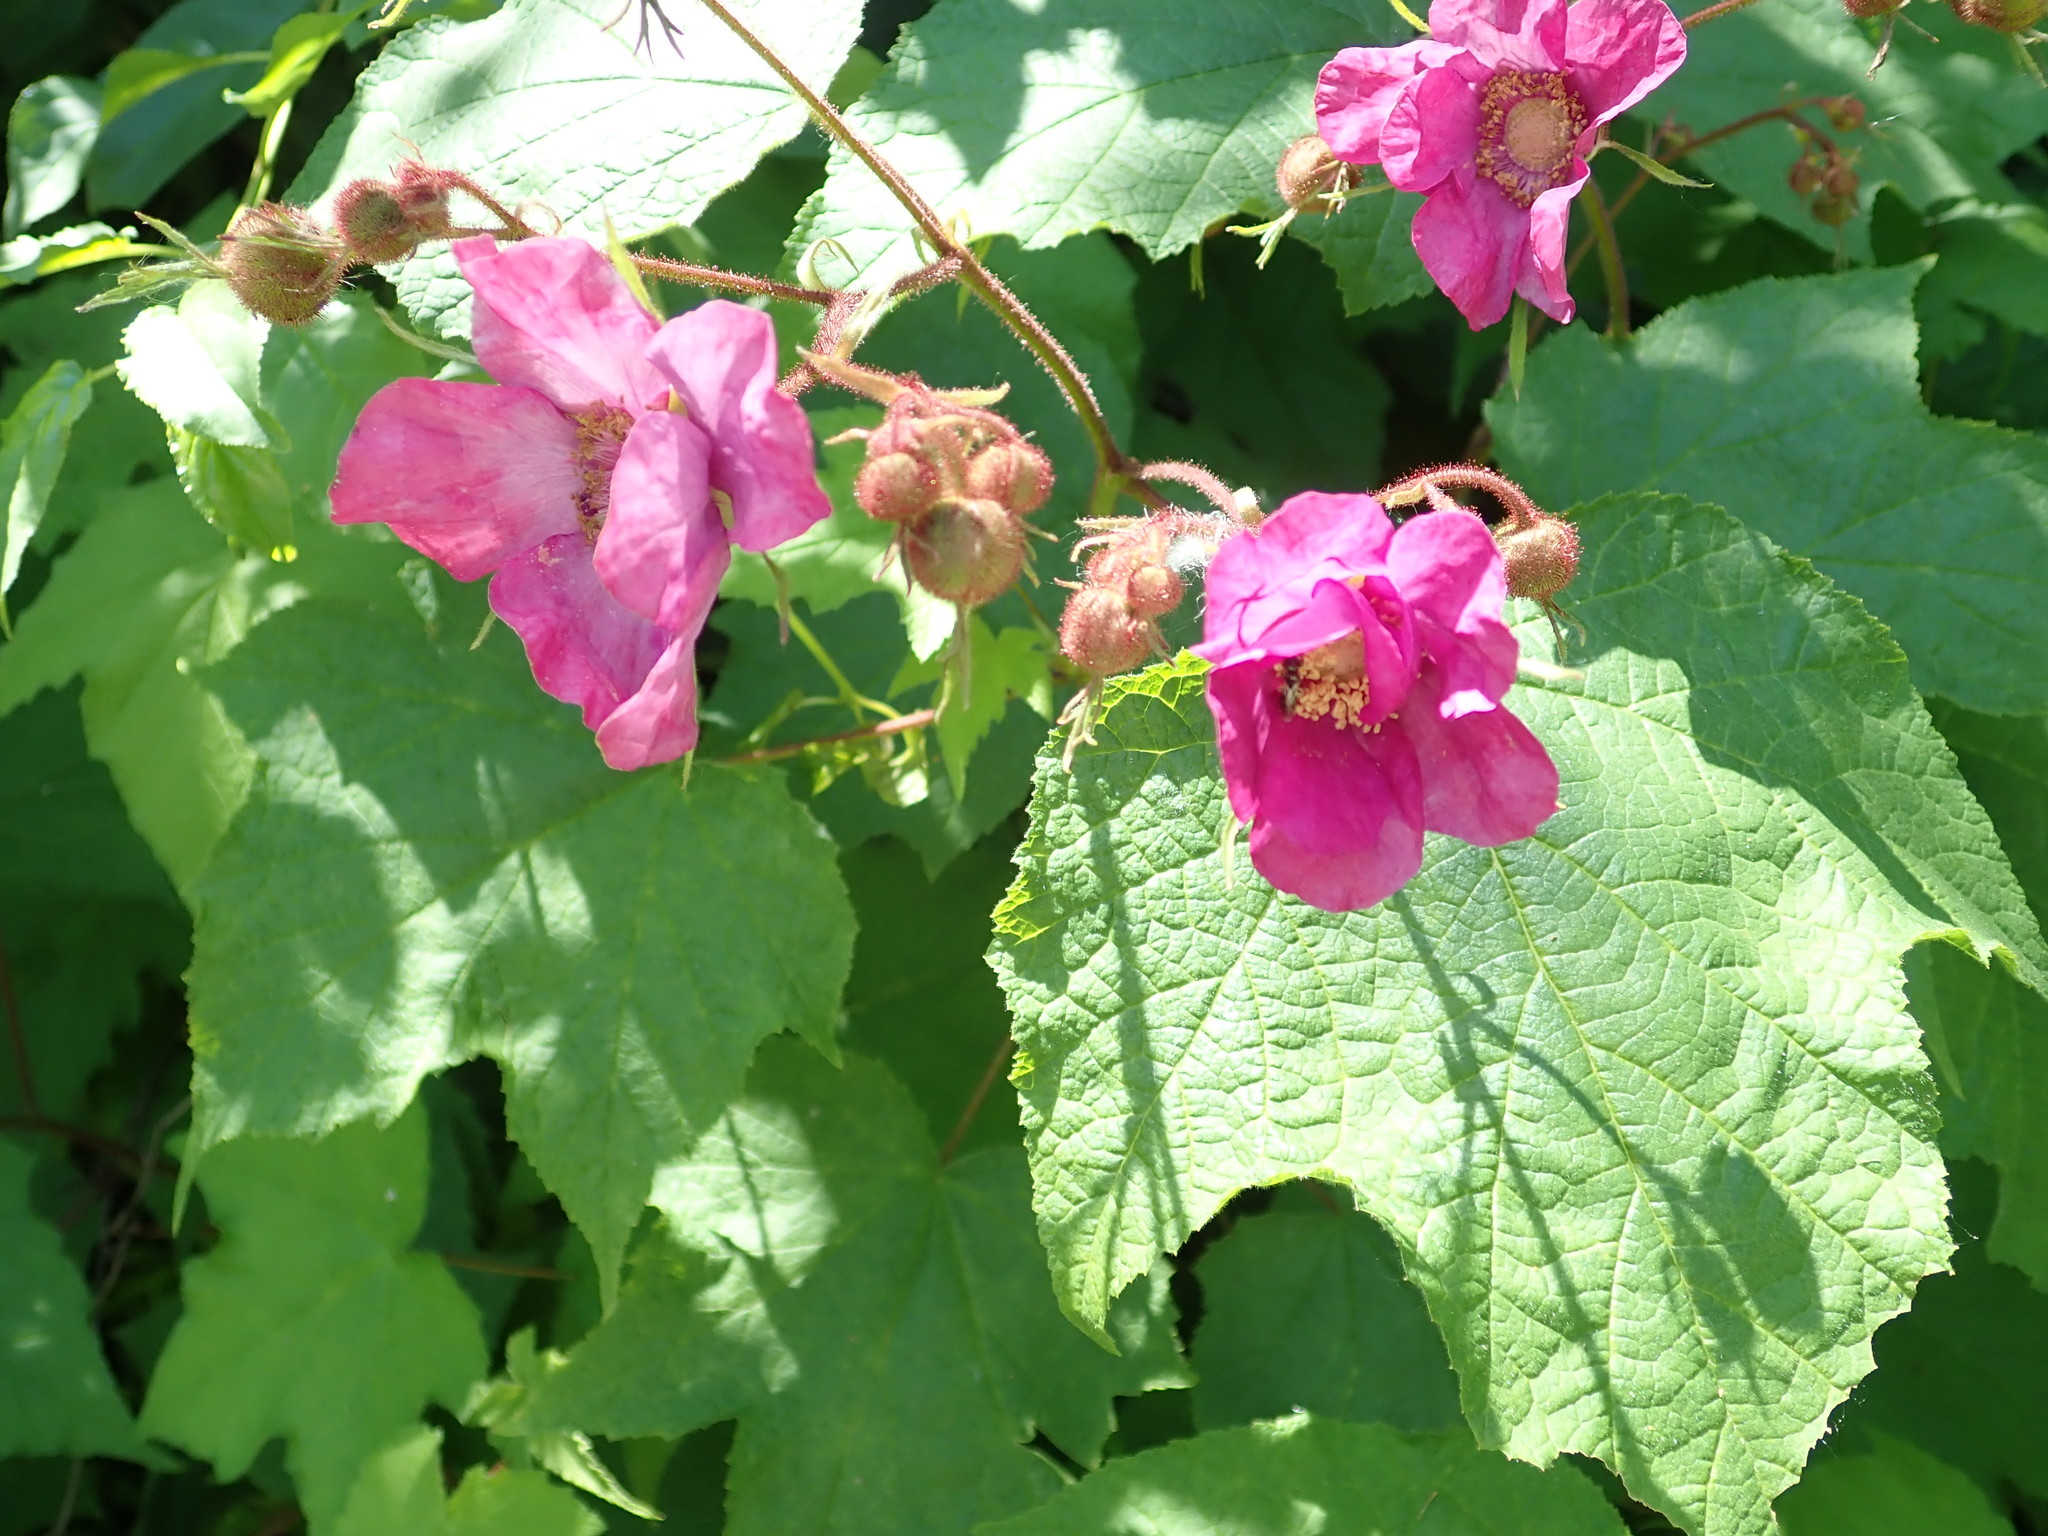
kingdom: Plantae
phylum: Tracheophyta
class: Magnoliopsida
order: Rosales
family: Rosaceae
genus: Rubus
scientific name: Rubus odoratus
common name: Purple-flowered raspberry
